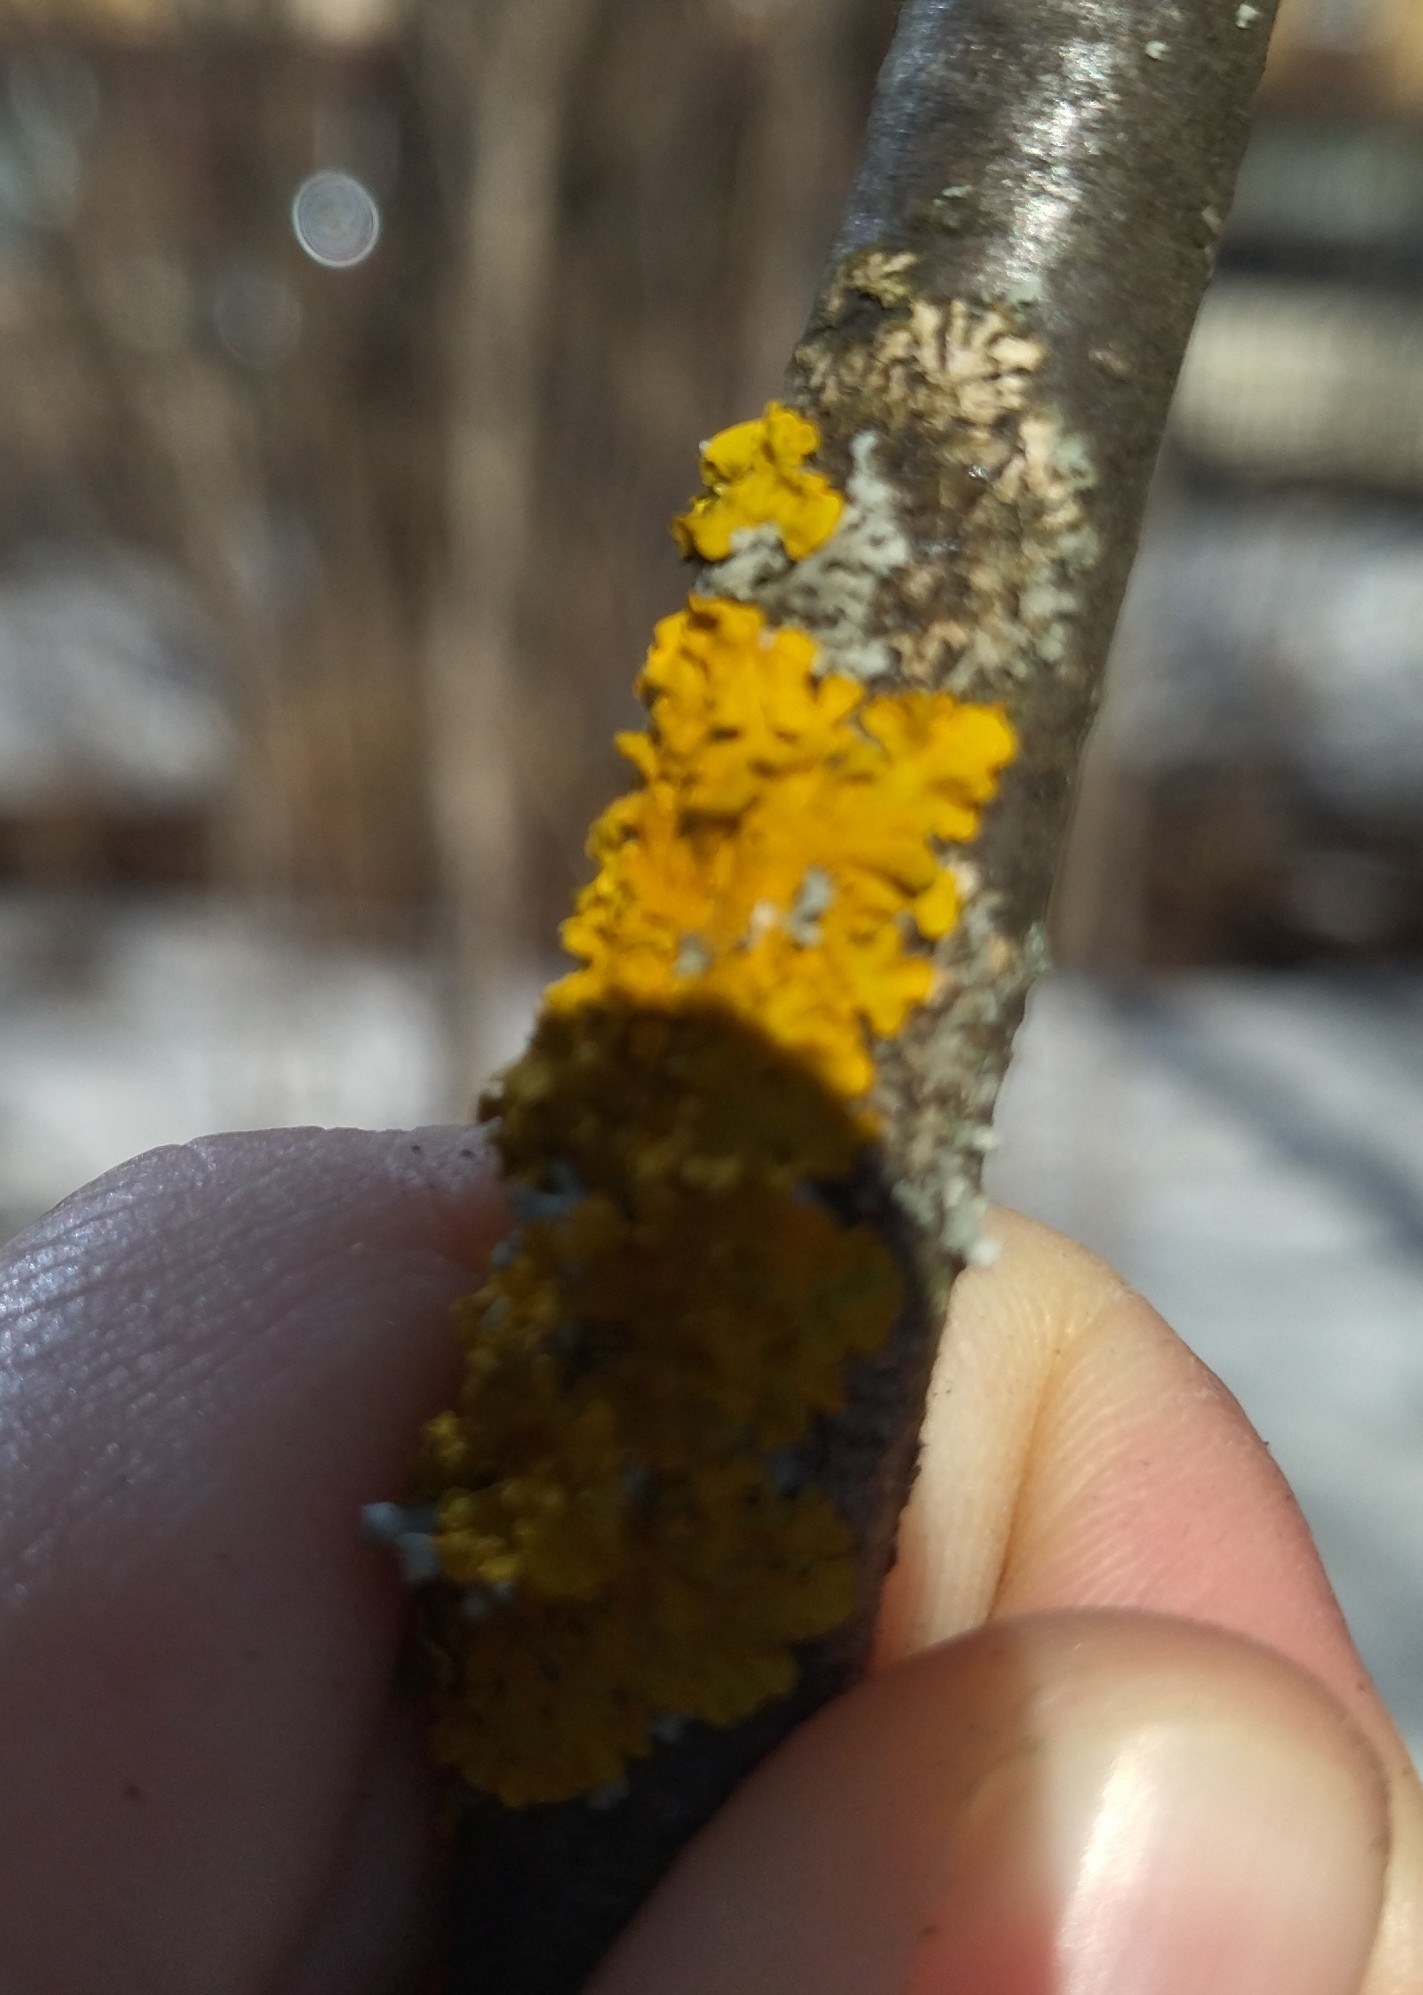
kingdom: Fungi
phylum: Ascomycota
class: Lecanoromycetes
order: Teloschistales
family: Teloschistaceae
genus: Xanthoria
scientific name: Xanthoria parietina
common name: Common orange lichen
